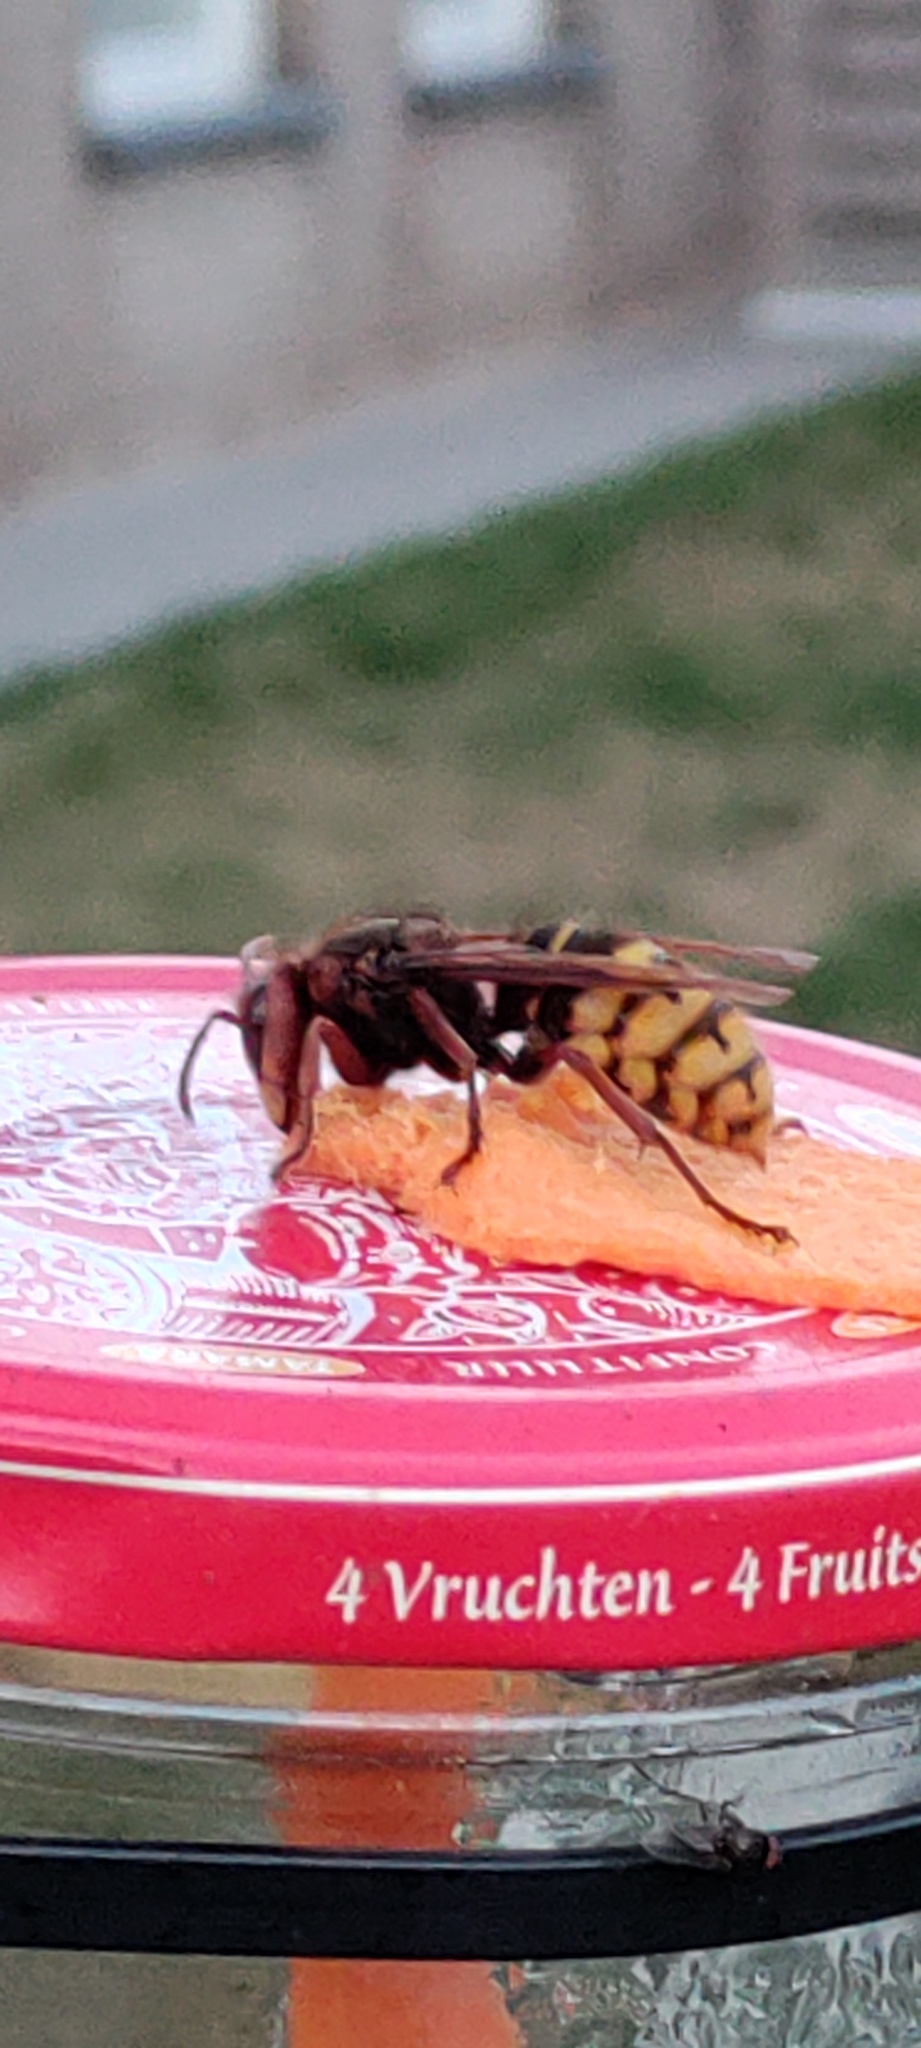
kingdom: Animalia
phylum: Arthropoda
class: Insecta
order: Hymenoptera
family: Vespidae
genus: Vespa
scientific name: Vespa crabro
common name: Hornet
